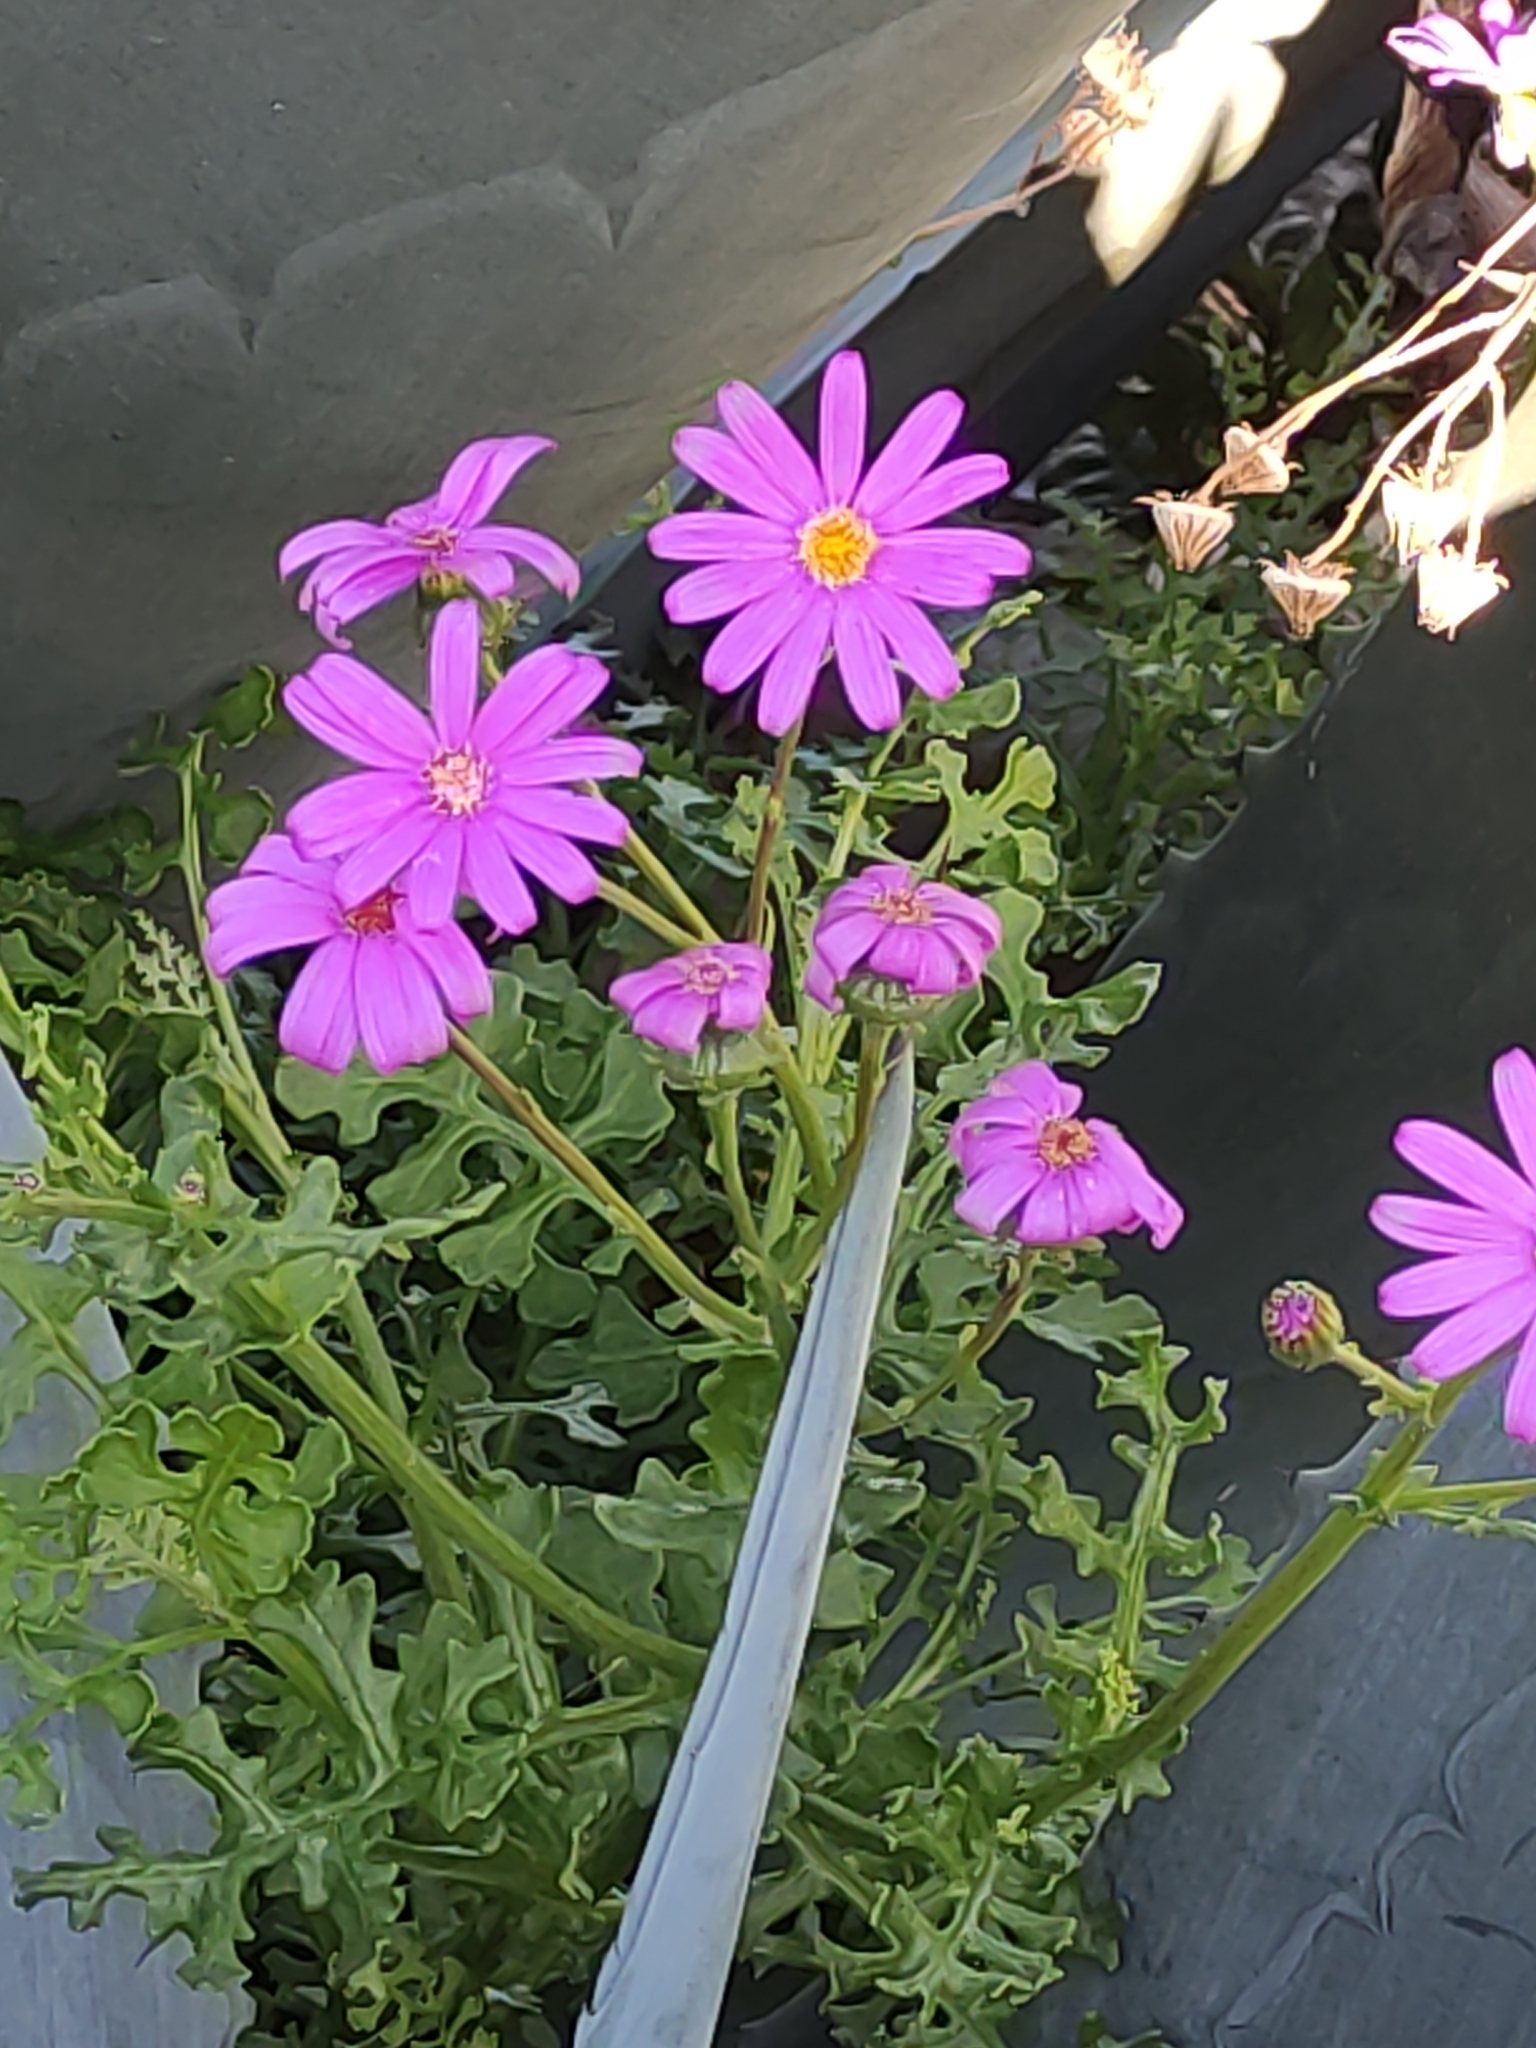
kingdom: Plantae
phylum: Tracheophyta
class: Magnoliopsida
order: Asterales
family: Asteraceae
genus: Senecio
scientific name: Senecio elegans
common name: Purple groundsel
